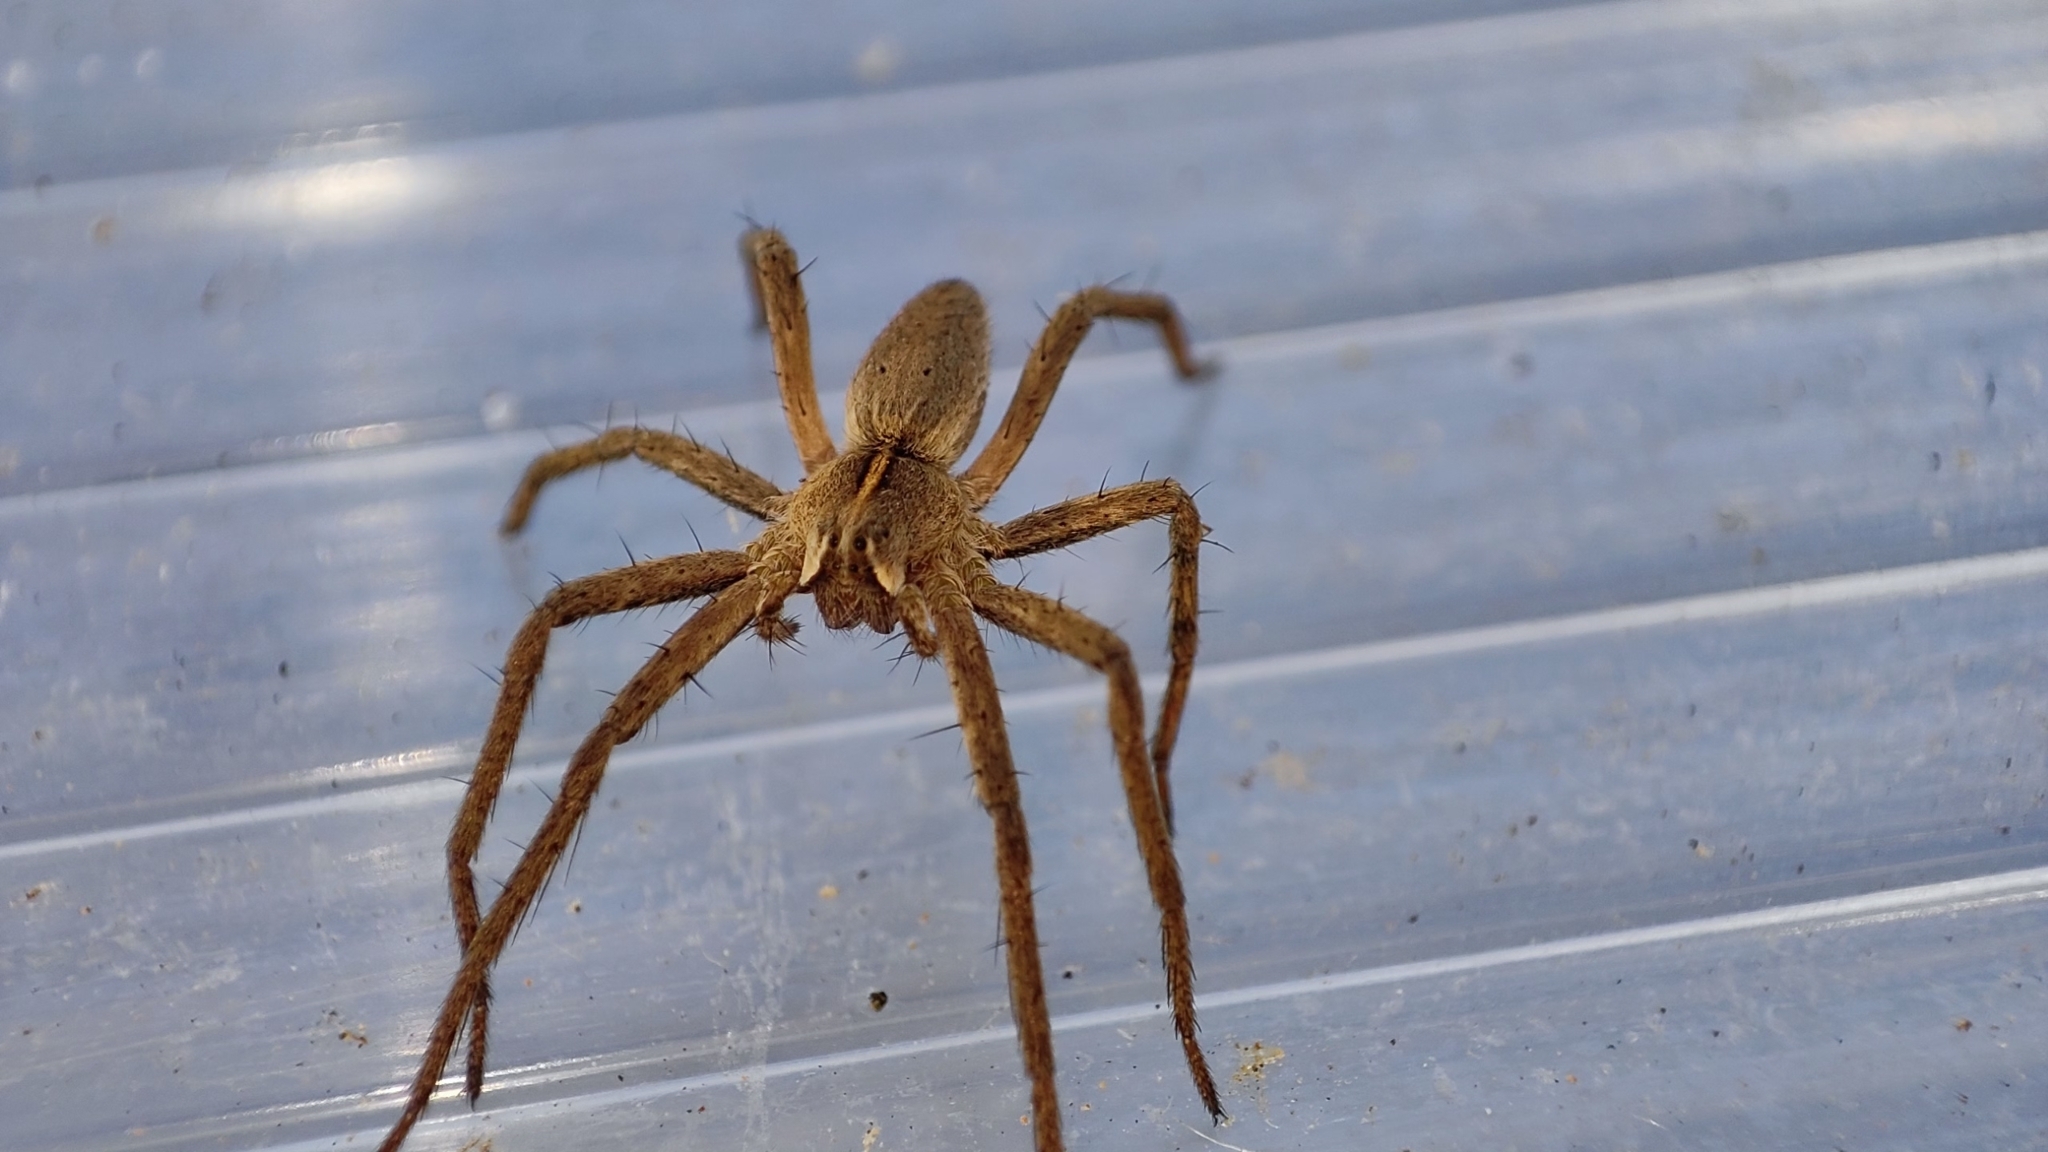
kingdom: Animalia
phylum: Arthropoda
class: Arachnida
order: Araneae
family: Pisauridae
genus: Pisaura
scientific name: Pisaura mirabilis
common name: Tent spider
